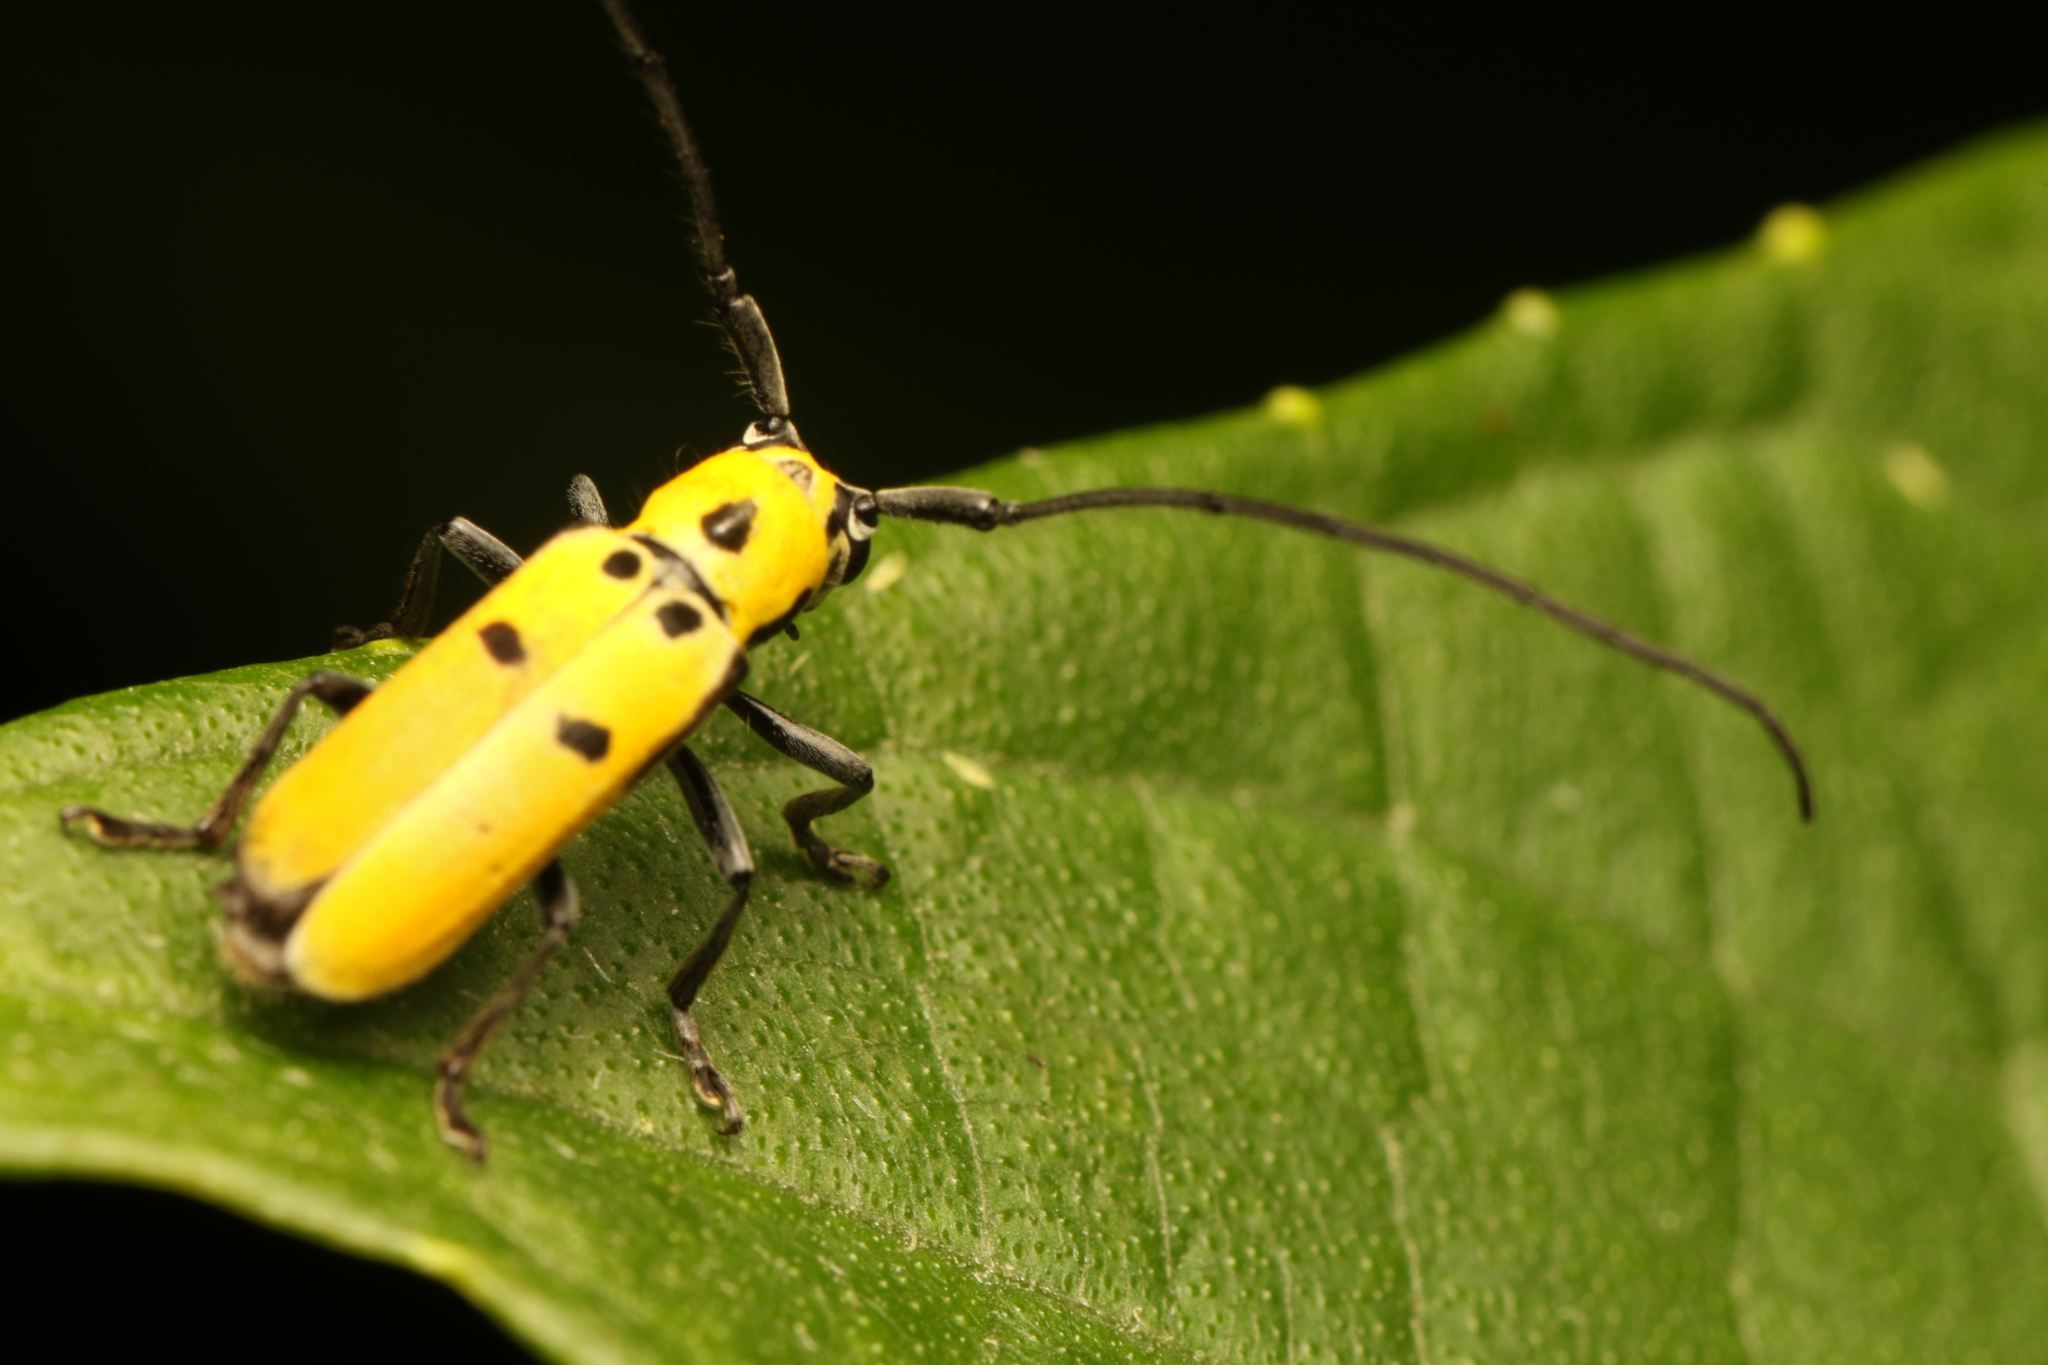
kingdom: Animalia
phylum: Arthropoda
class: Insecta
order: Coleoptera
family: Cerambycidae
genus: Adesmus
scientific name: Adesmus hemispilus
